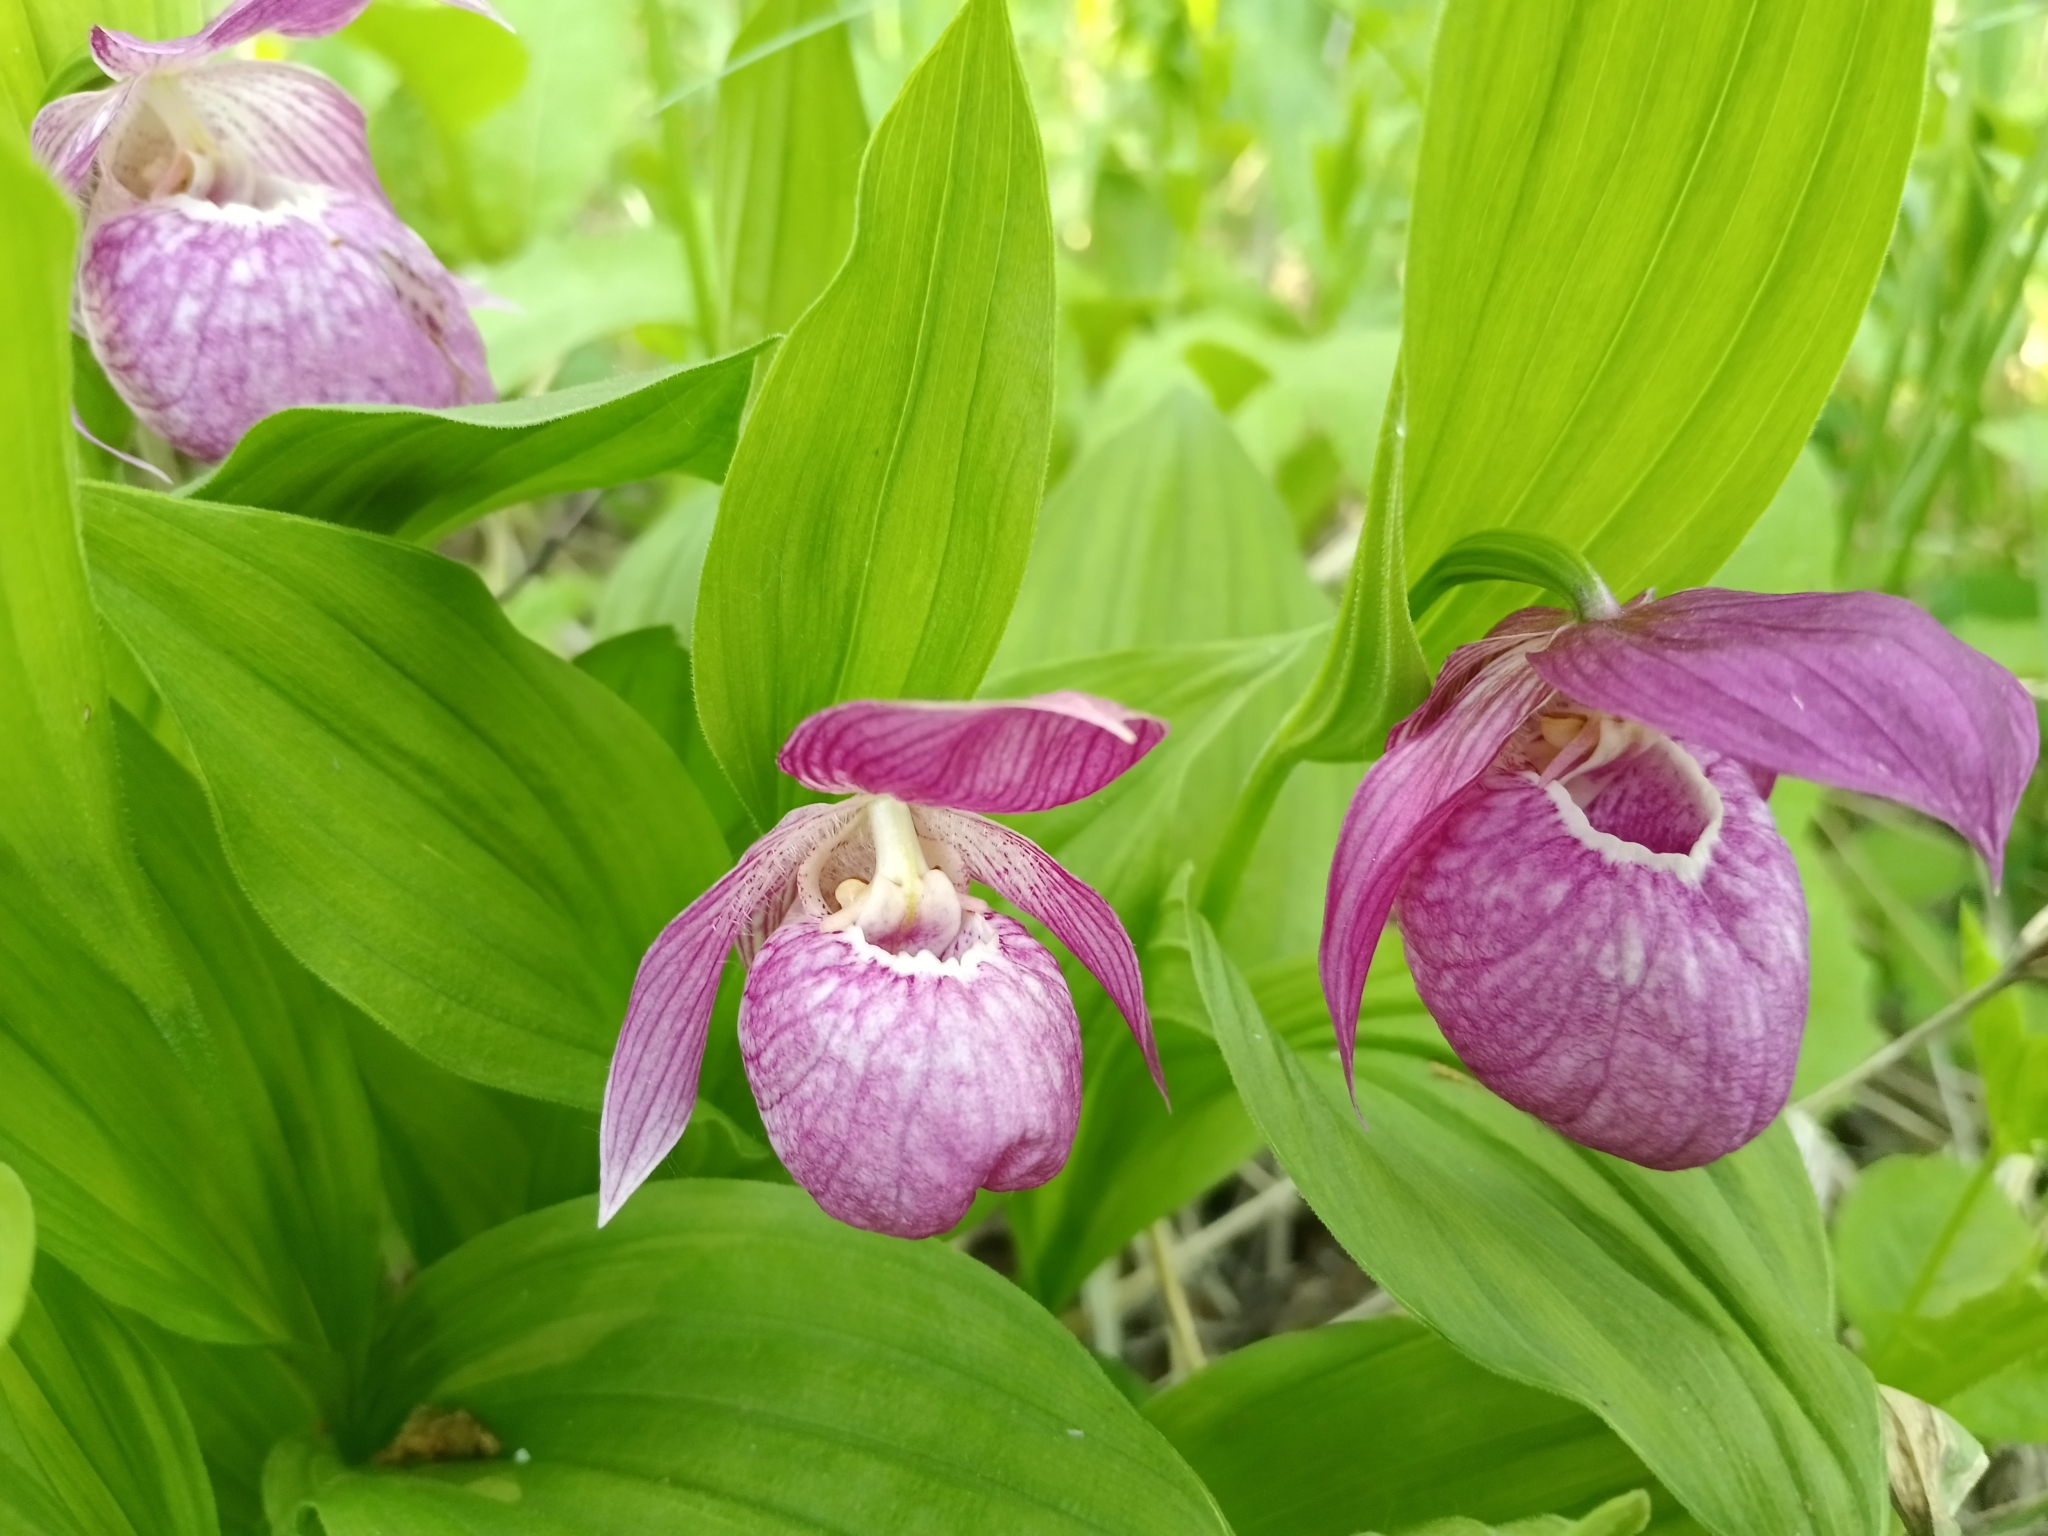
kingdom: Plantae
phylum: Tracheophyta
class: Liliopsida
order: Asparagales
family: Orchidaceae
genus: Cypripedium
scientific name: Cypripedium macranthos
